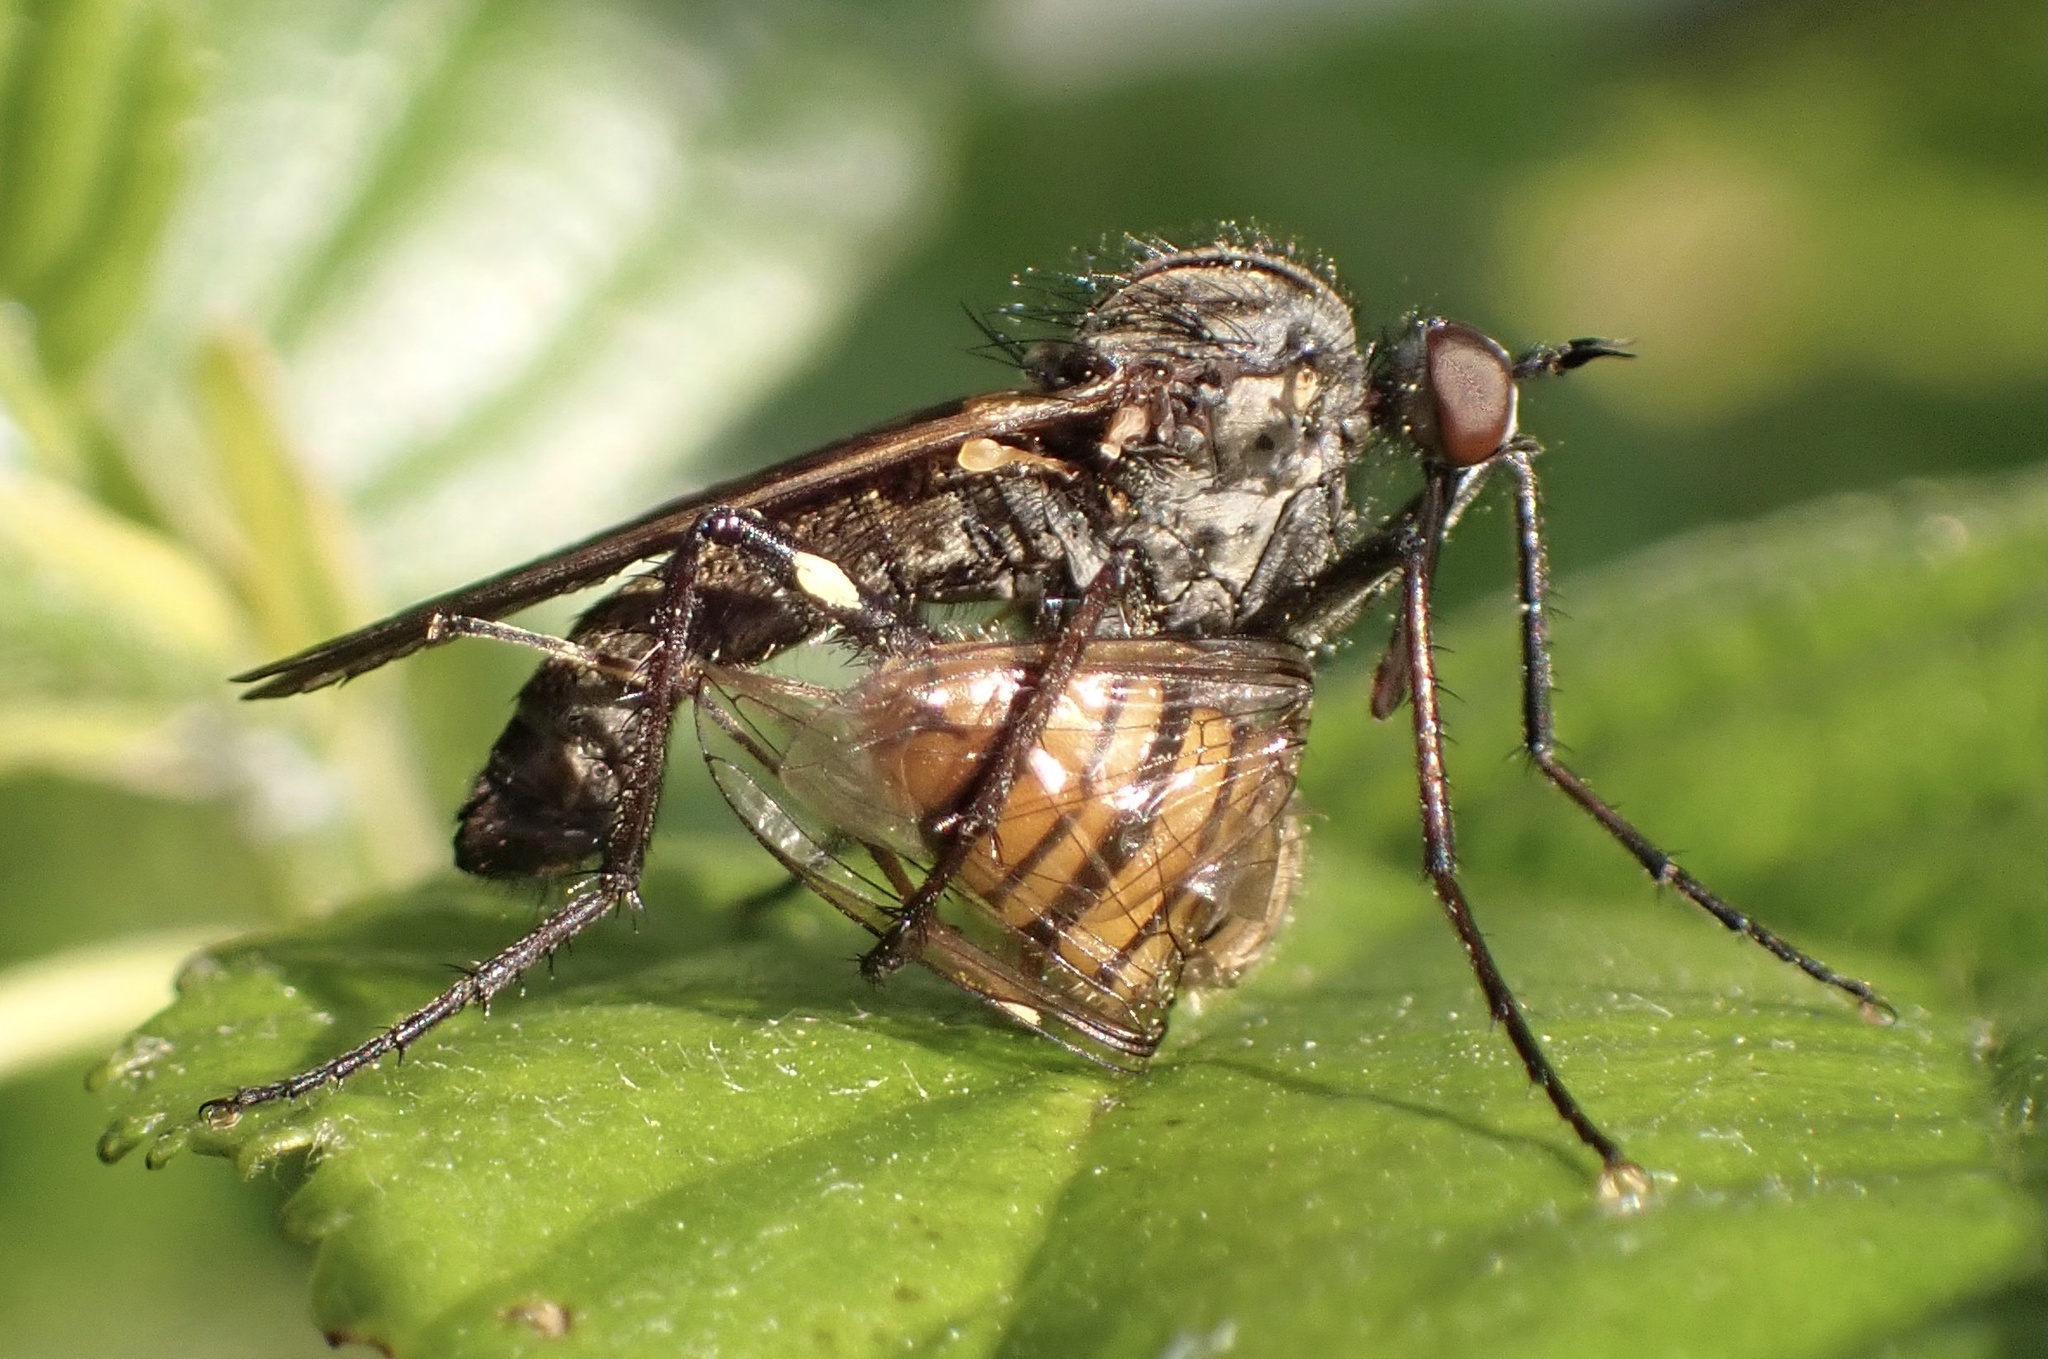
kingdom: Animalia
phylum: Arthropoda
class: Insecta
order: Diptera
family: Empididae
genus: Empis
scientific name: Empis tessellata
